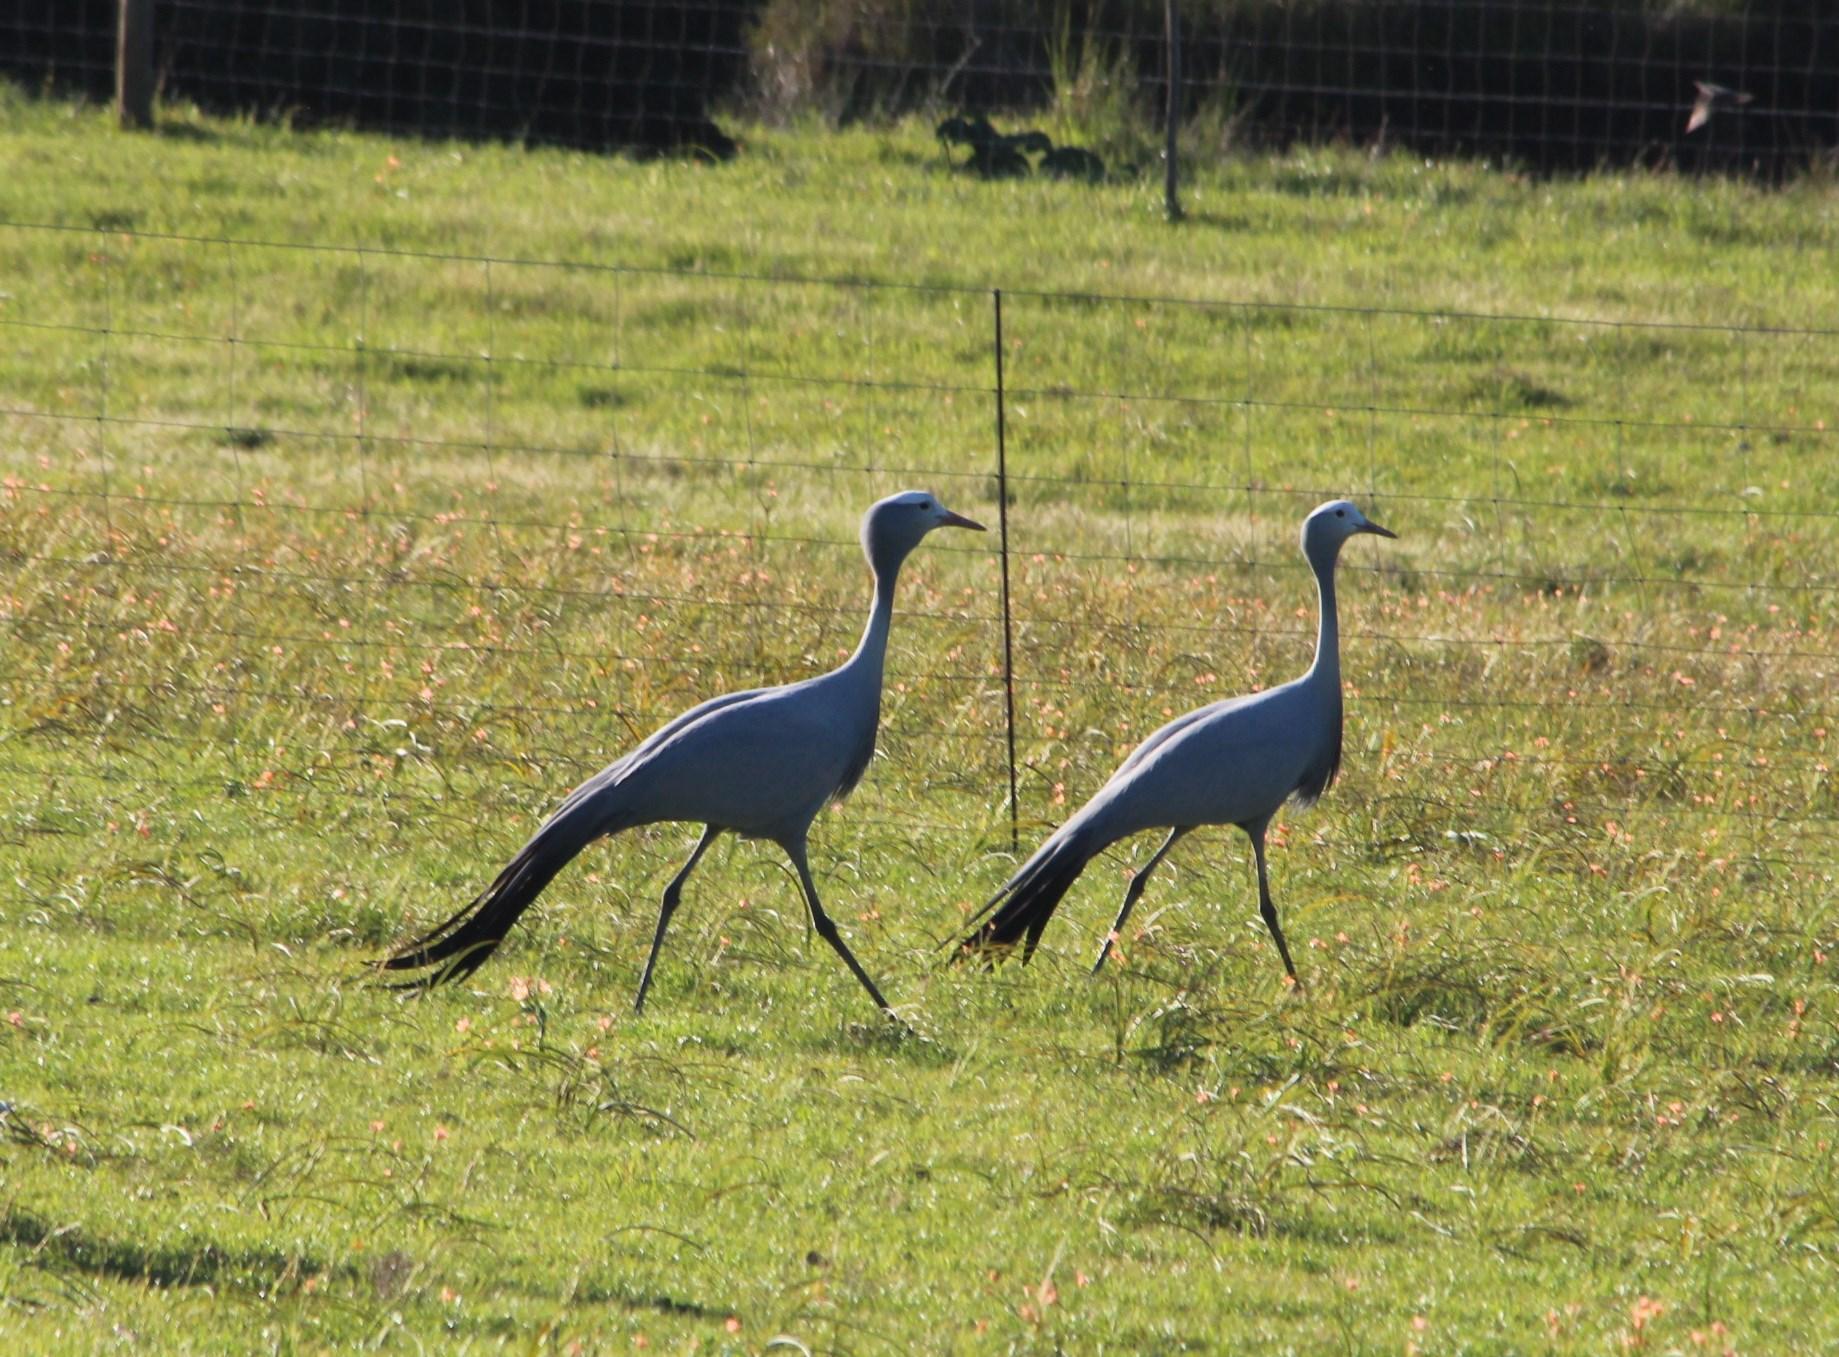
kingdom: Animalia
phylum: Chordata
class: Aves
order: Gruiformes
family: Gruidae
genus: Anthropoides
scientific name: Anthropoides paradiseus
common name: Blue crane
